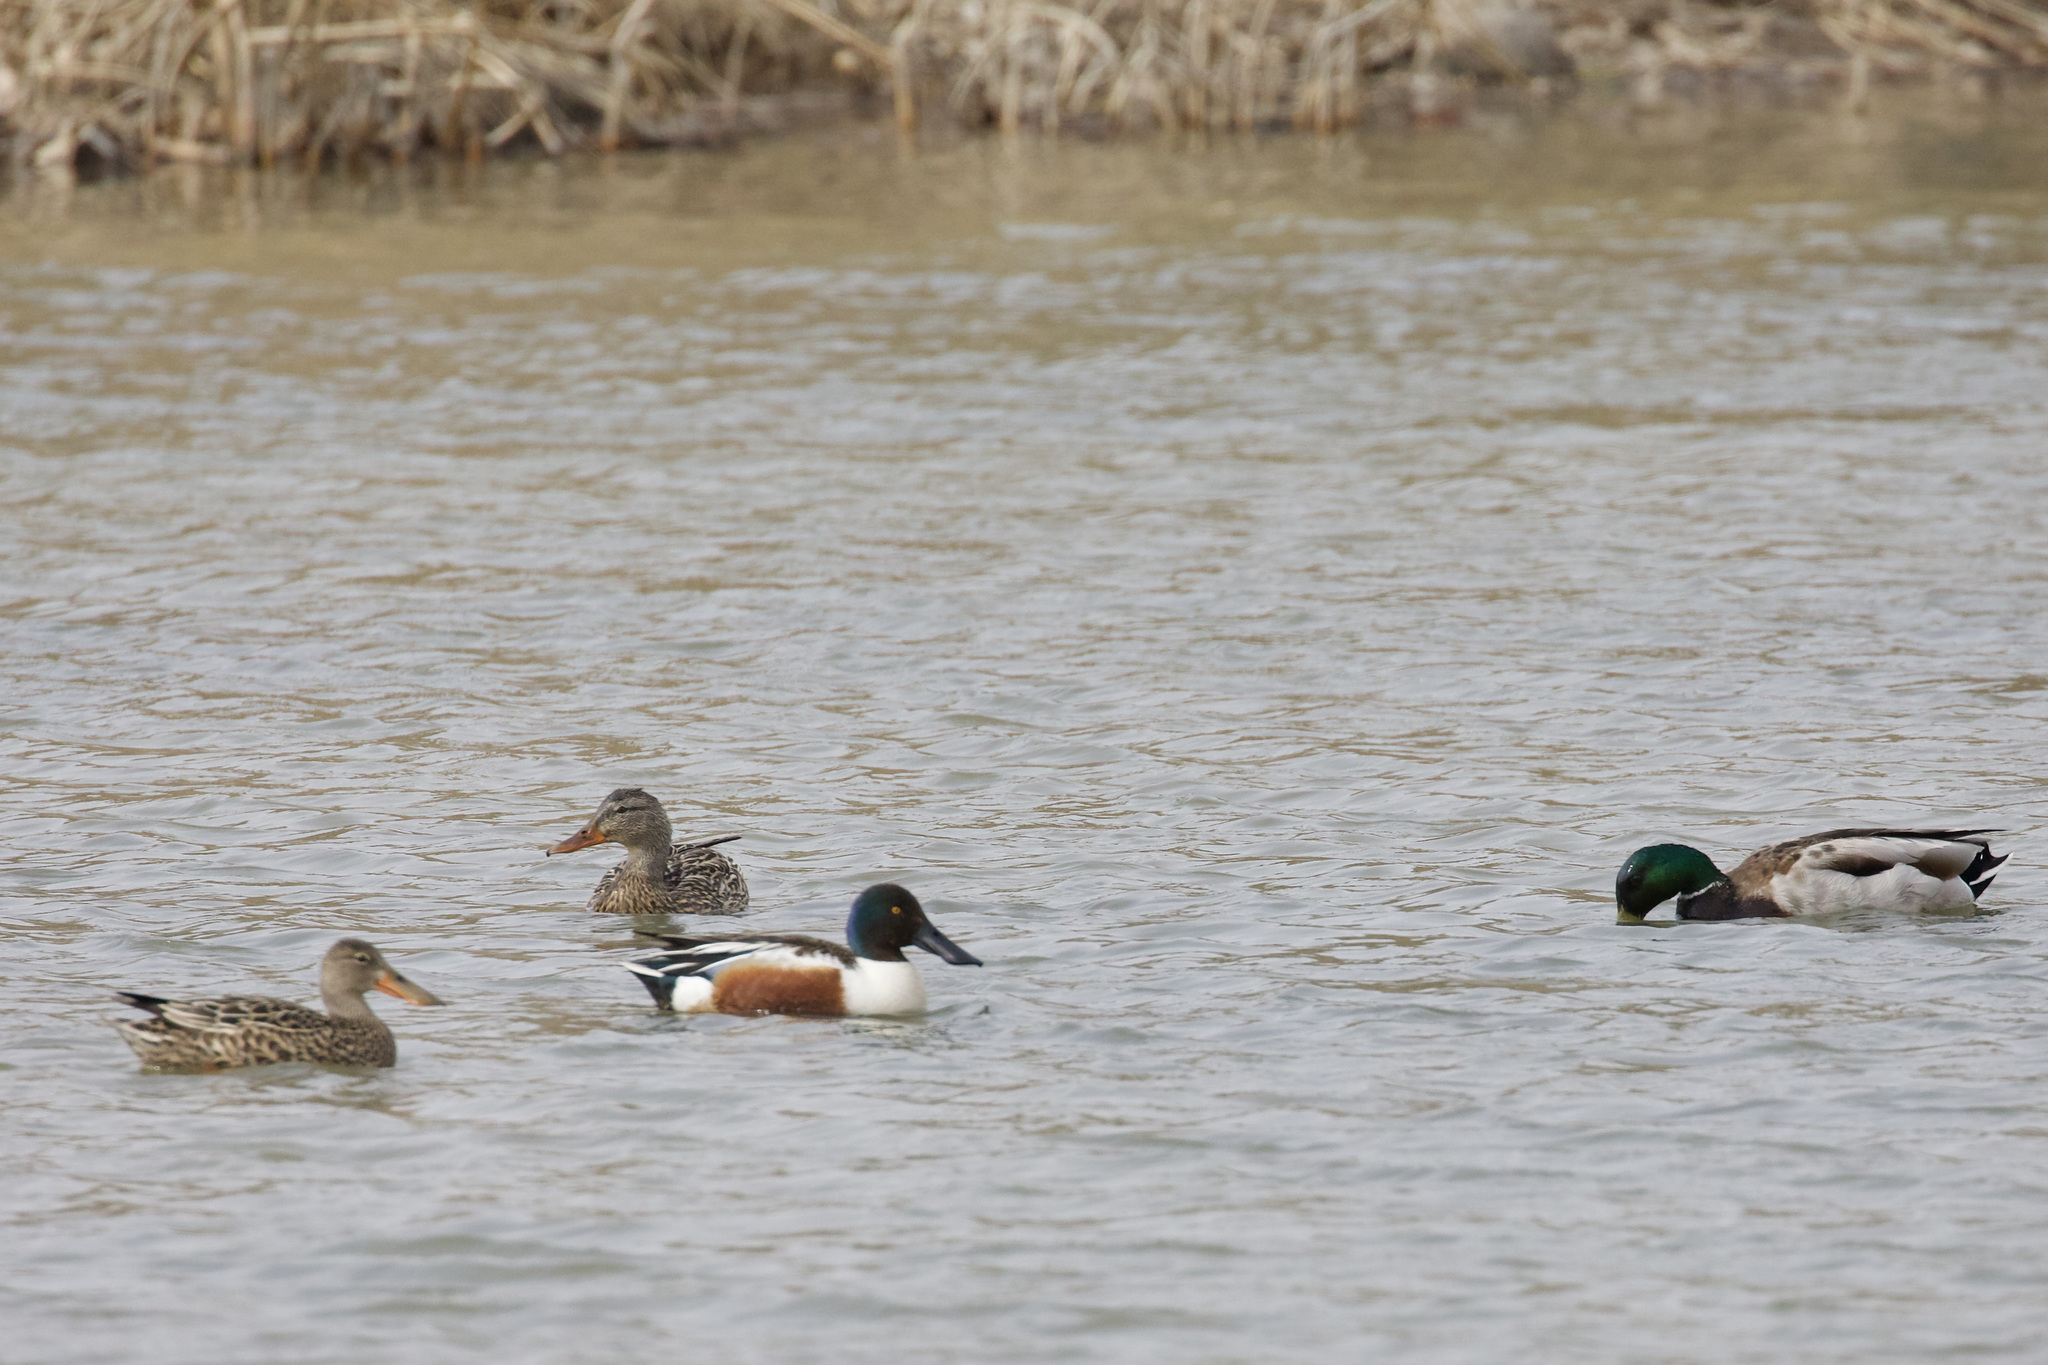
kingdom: Animalia
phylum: Chordata
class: Aves
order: Anseriformes
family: Anatidae
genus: Spatula
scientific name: Spatula clypeata
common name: Northern shoveler
